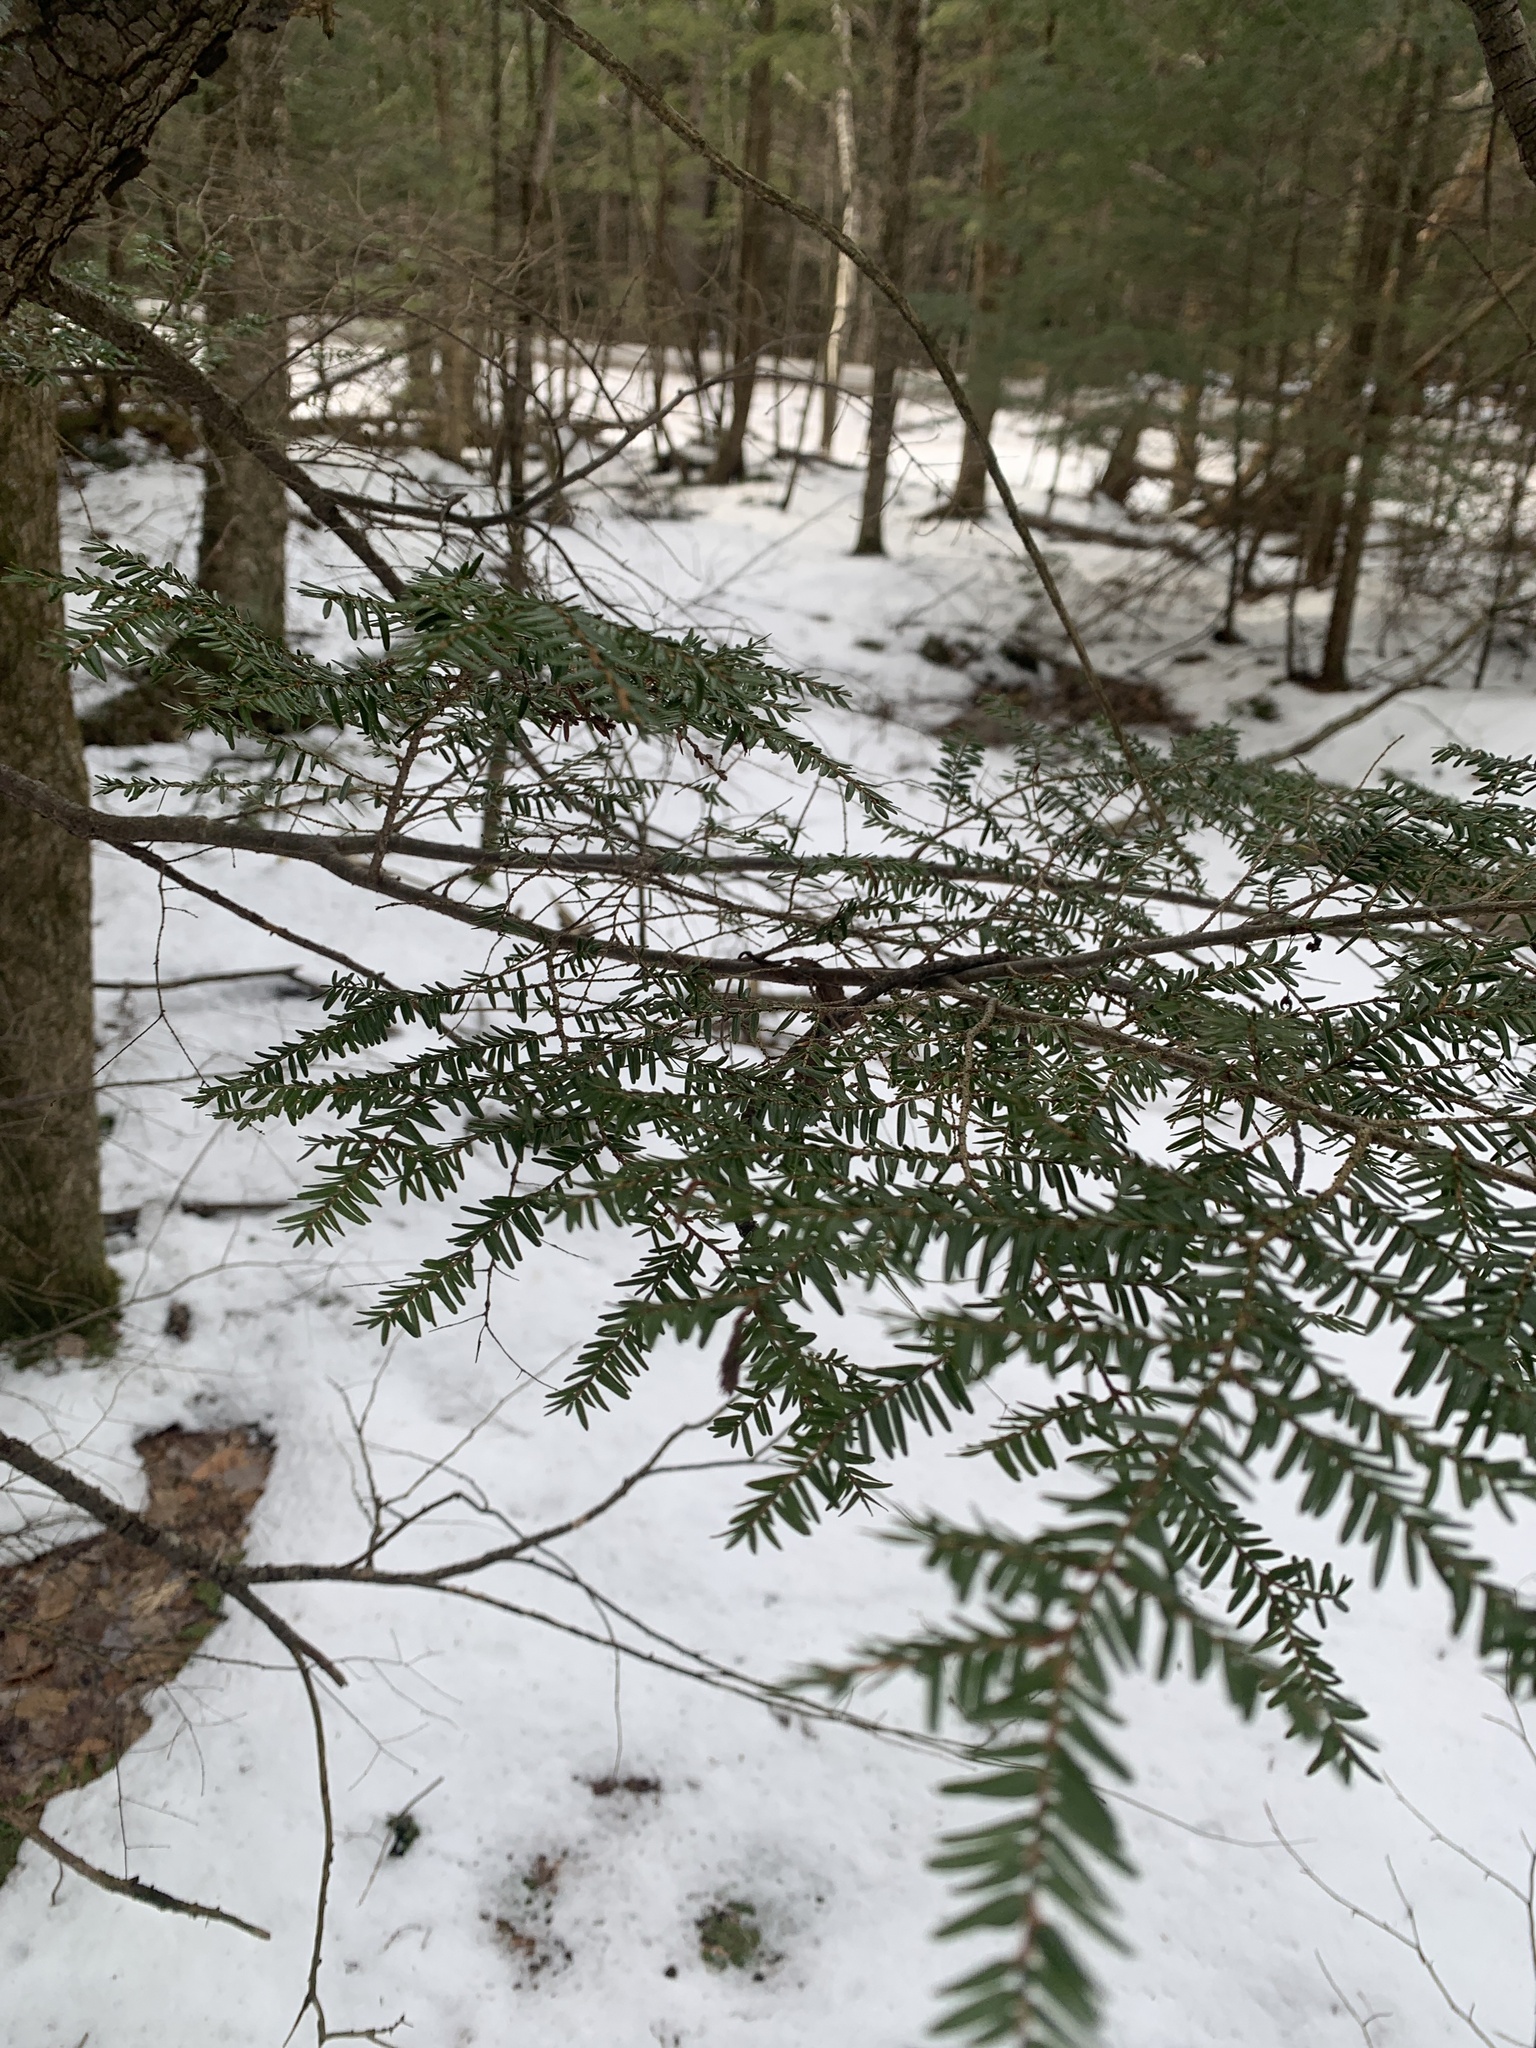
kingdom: Plantae
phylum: Tracheophyta
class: Pinopsida
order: Pinales
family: Pinaceae
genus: Tsuga
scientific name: Tsuga canadensis
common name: Eastern hemlock
